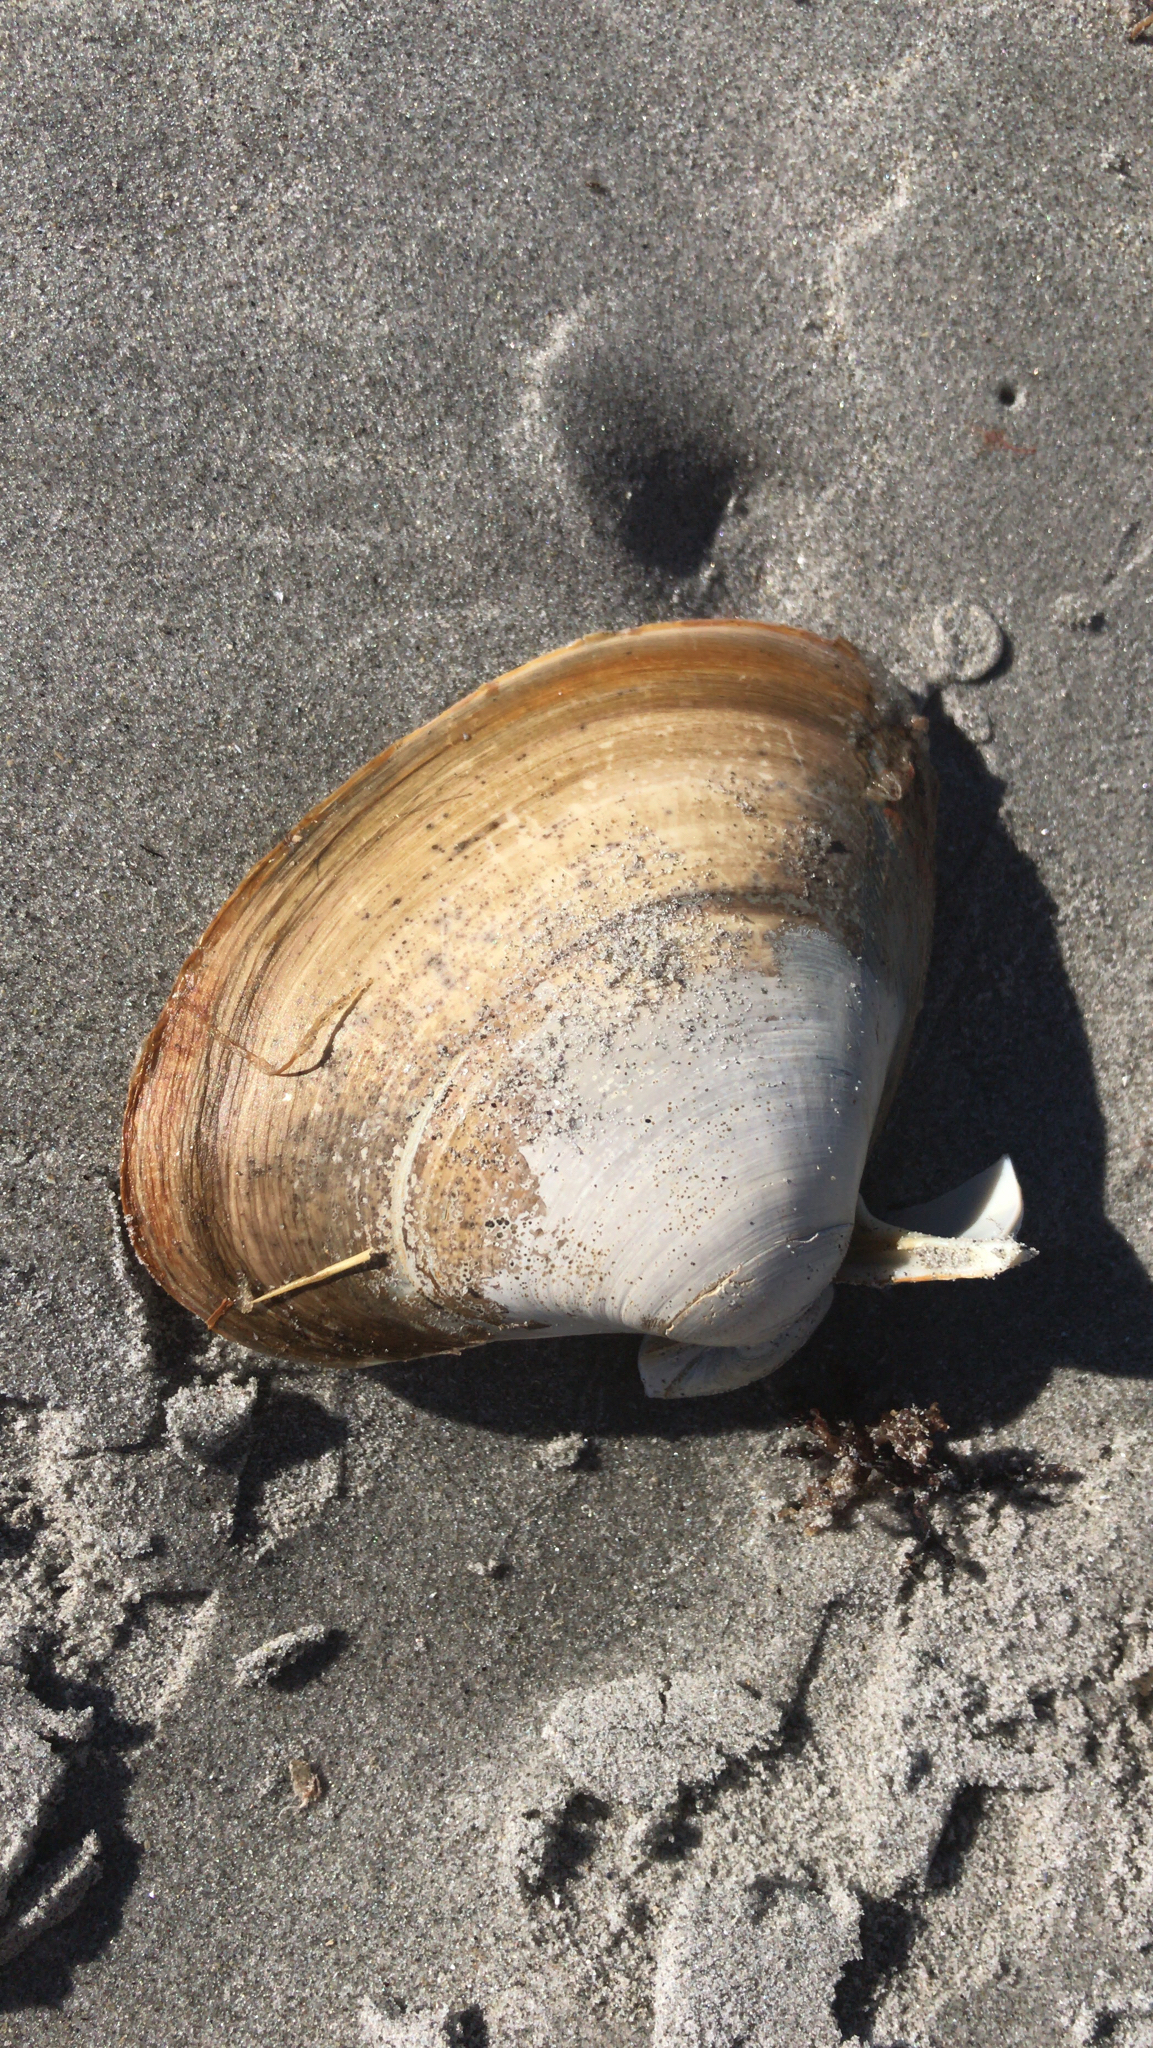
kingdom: Animalia
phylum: Mollusca
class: Bivalvia
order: Venerida
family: Mactridae
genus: Spisula
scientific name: Spisula solidissima
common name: Atlantic surf clam
